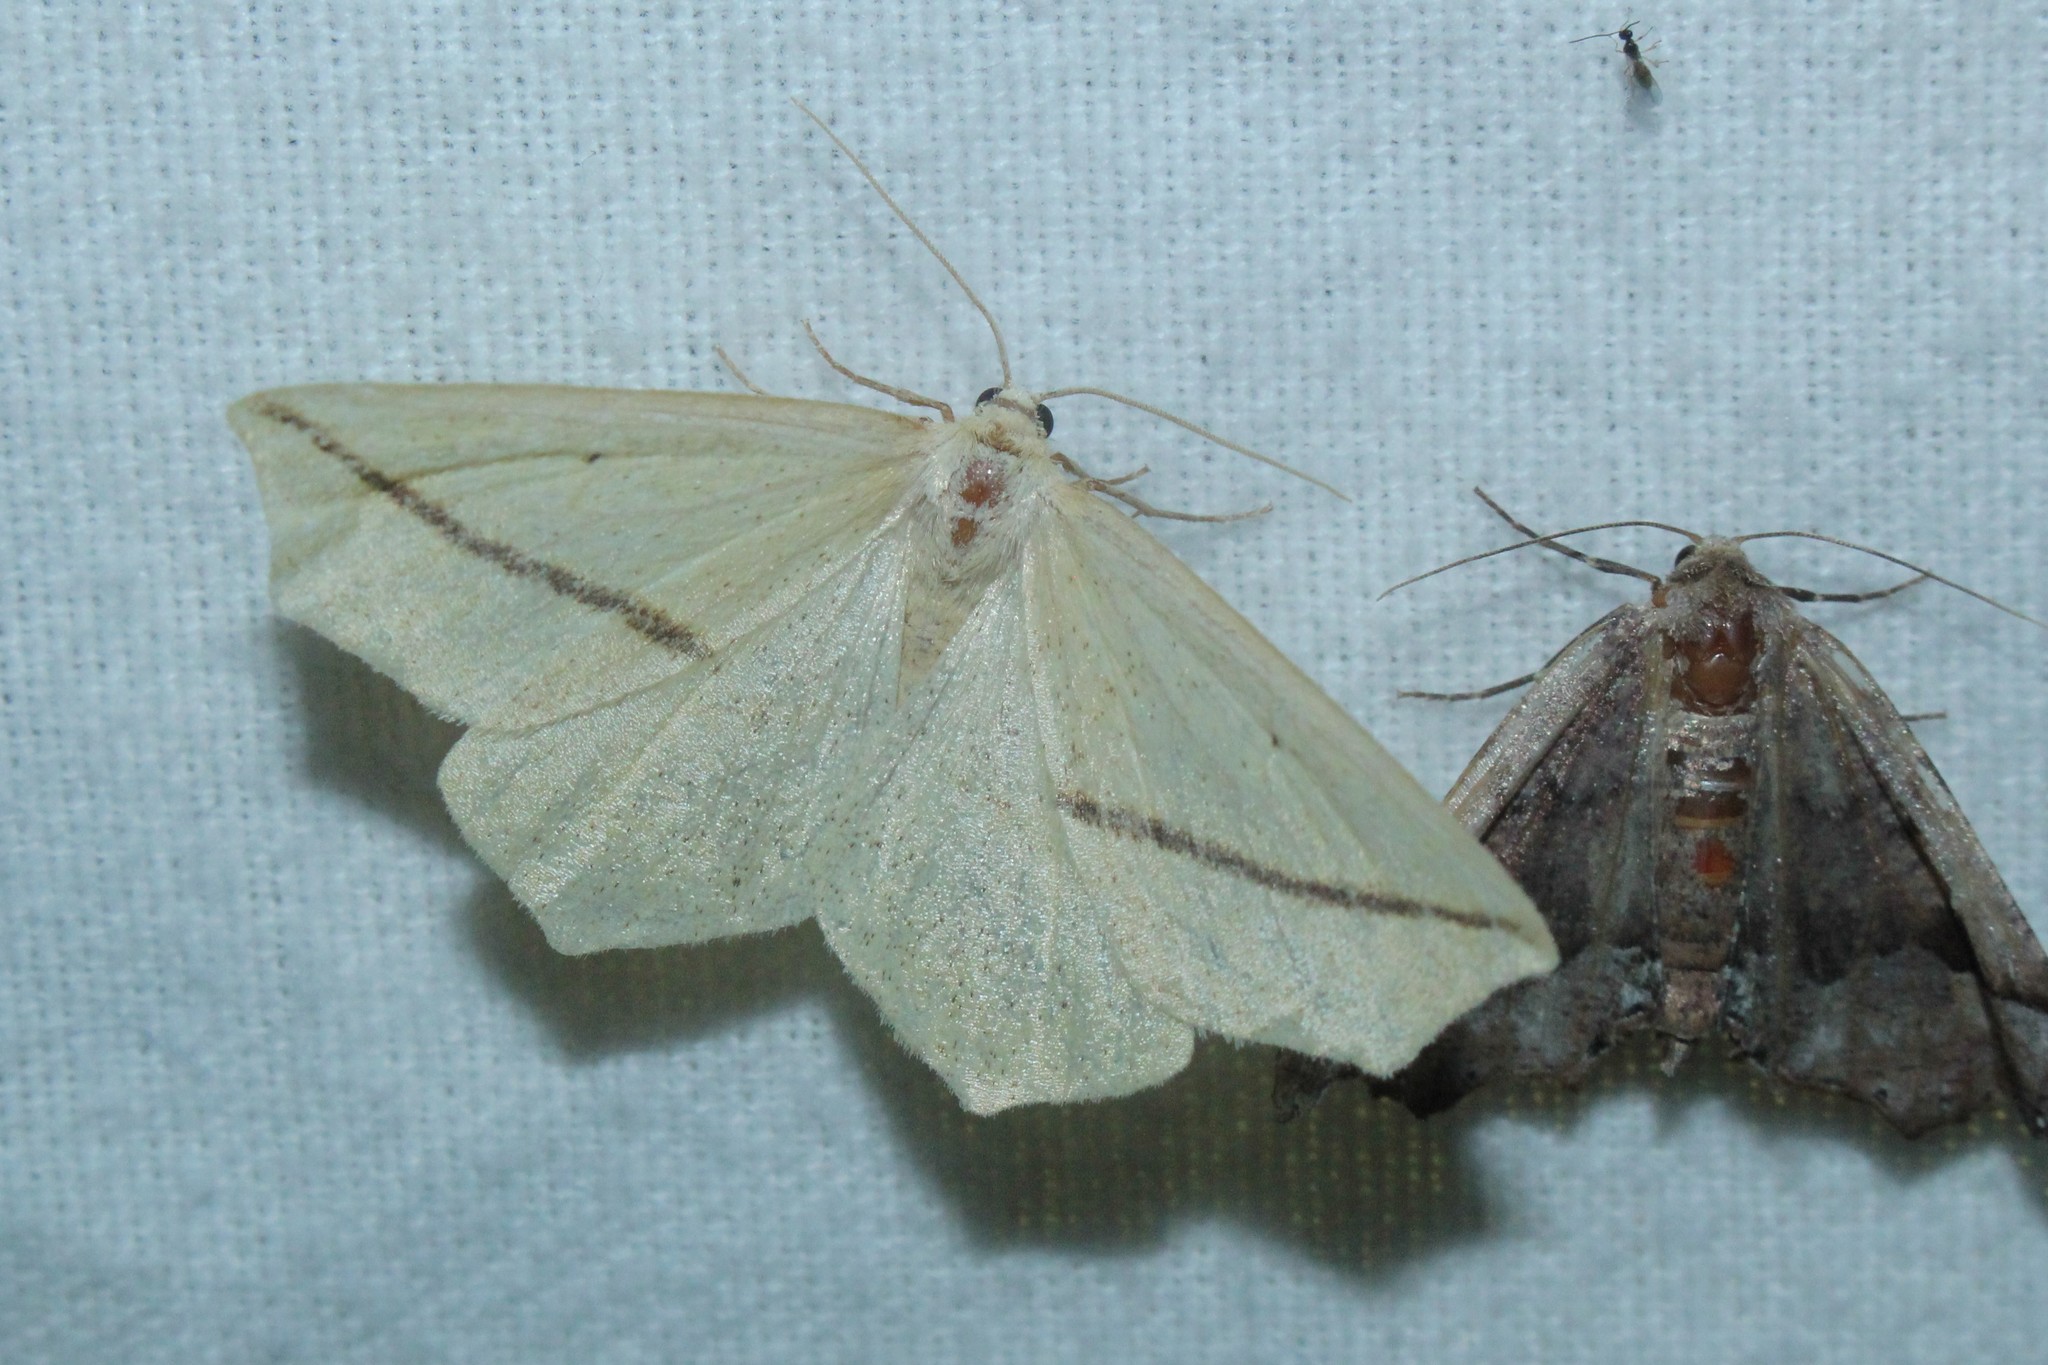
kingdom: Animalia
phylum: Arthropoda
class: Insecta
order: Lepidoptera
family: Geometridae
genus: Tetracis
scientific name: Tetracis crocallata
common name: Yellow slant-line
